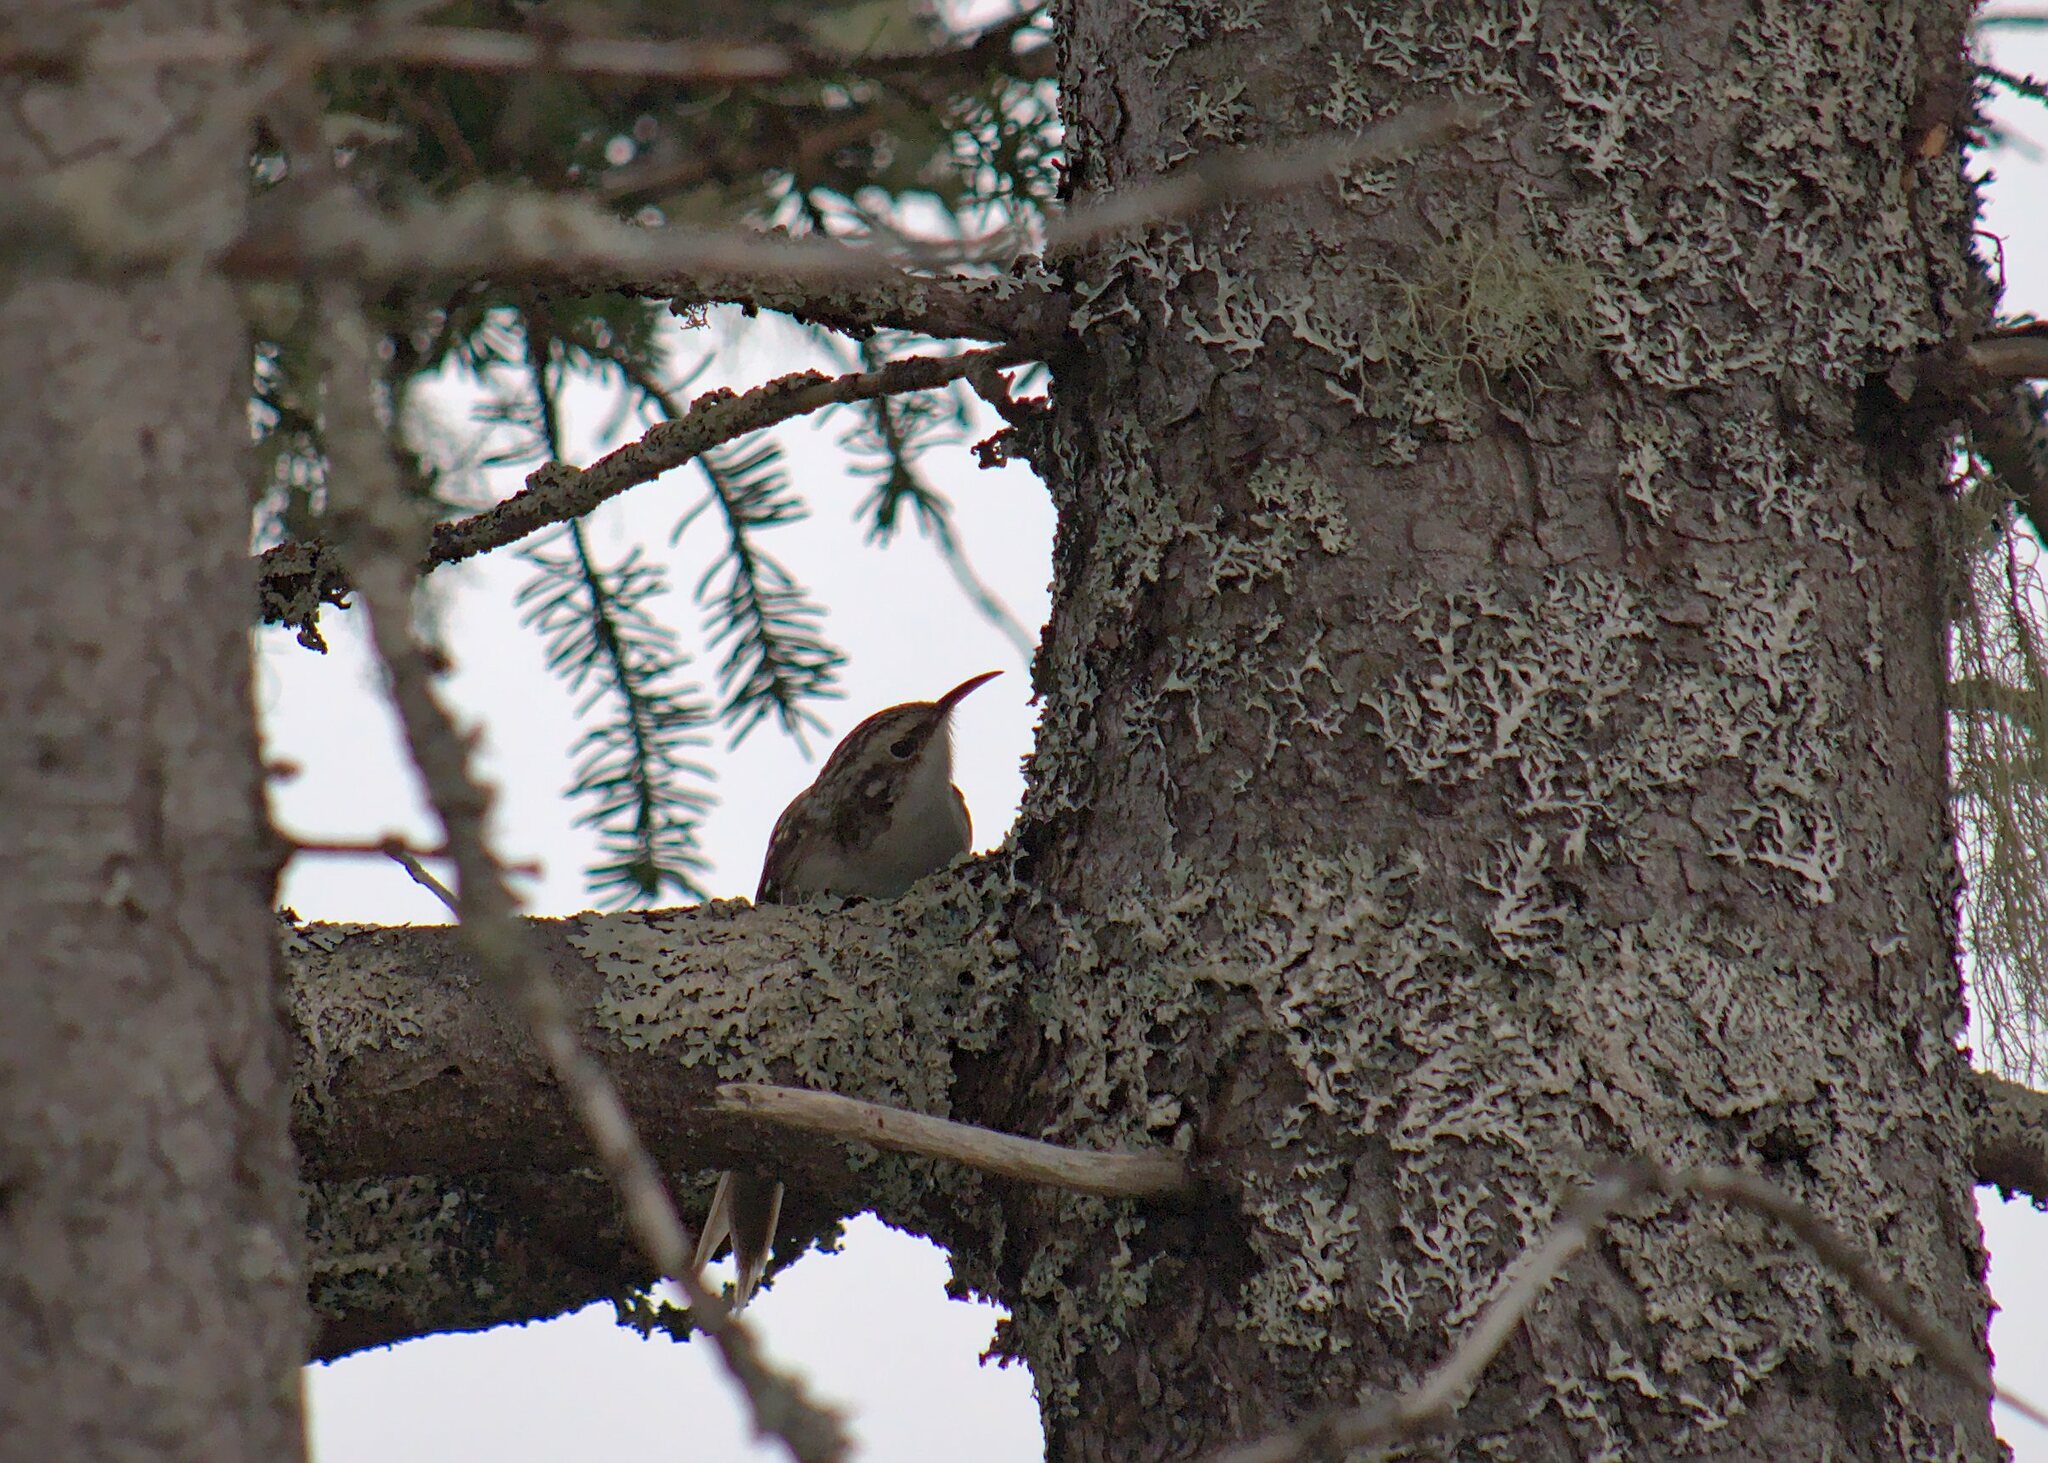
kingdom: Animalia
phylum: Chordata
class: Aves
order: Passeriformes
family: Certhiidae
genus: Certhia
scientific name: Certhia americana
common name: Brown creeper
